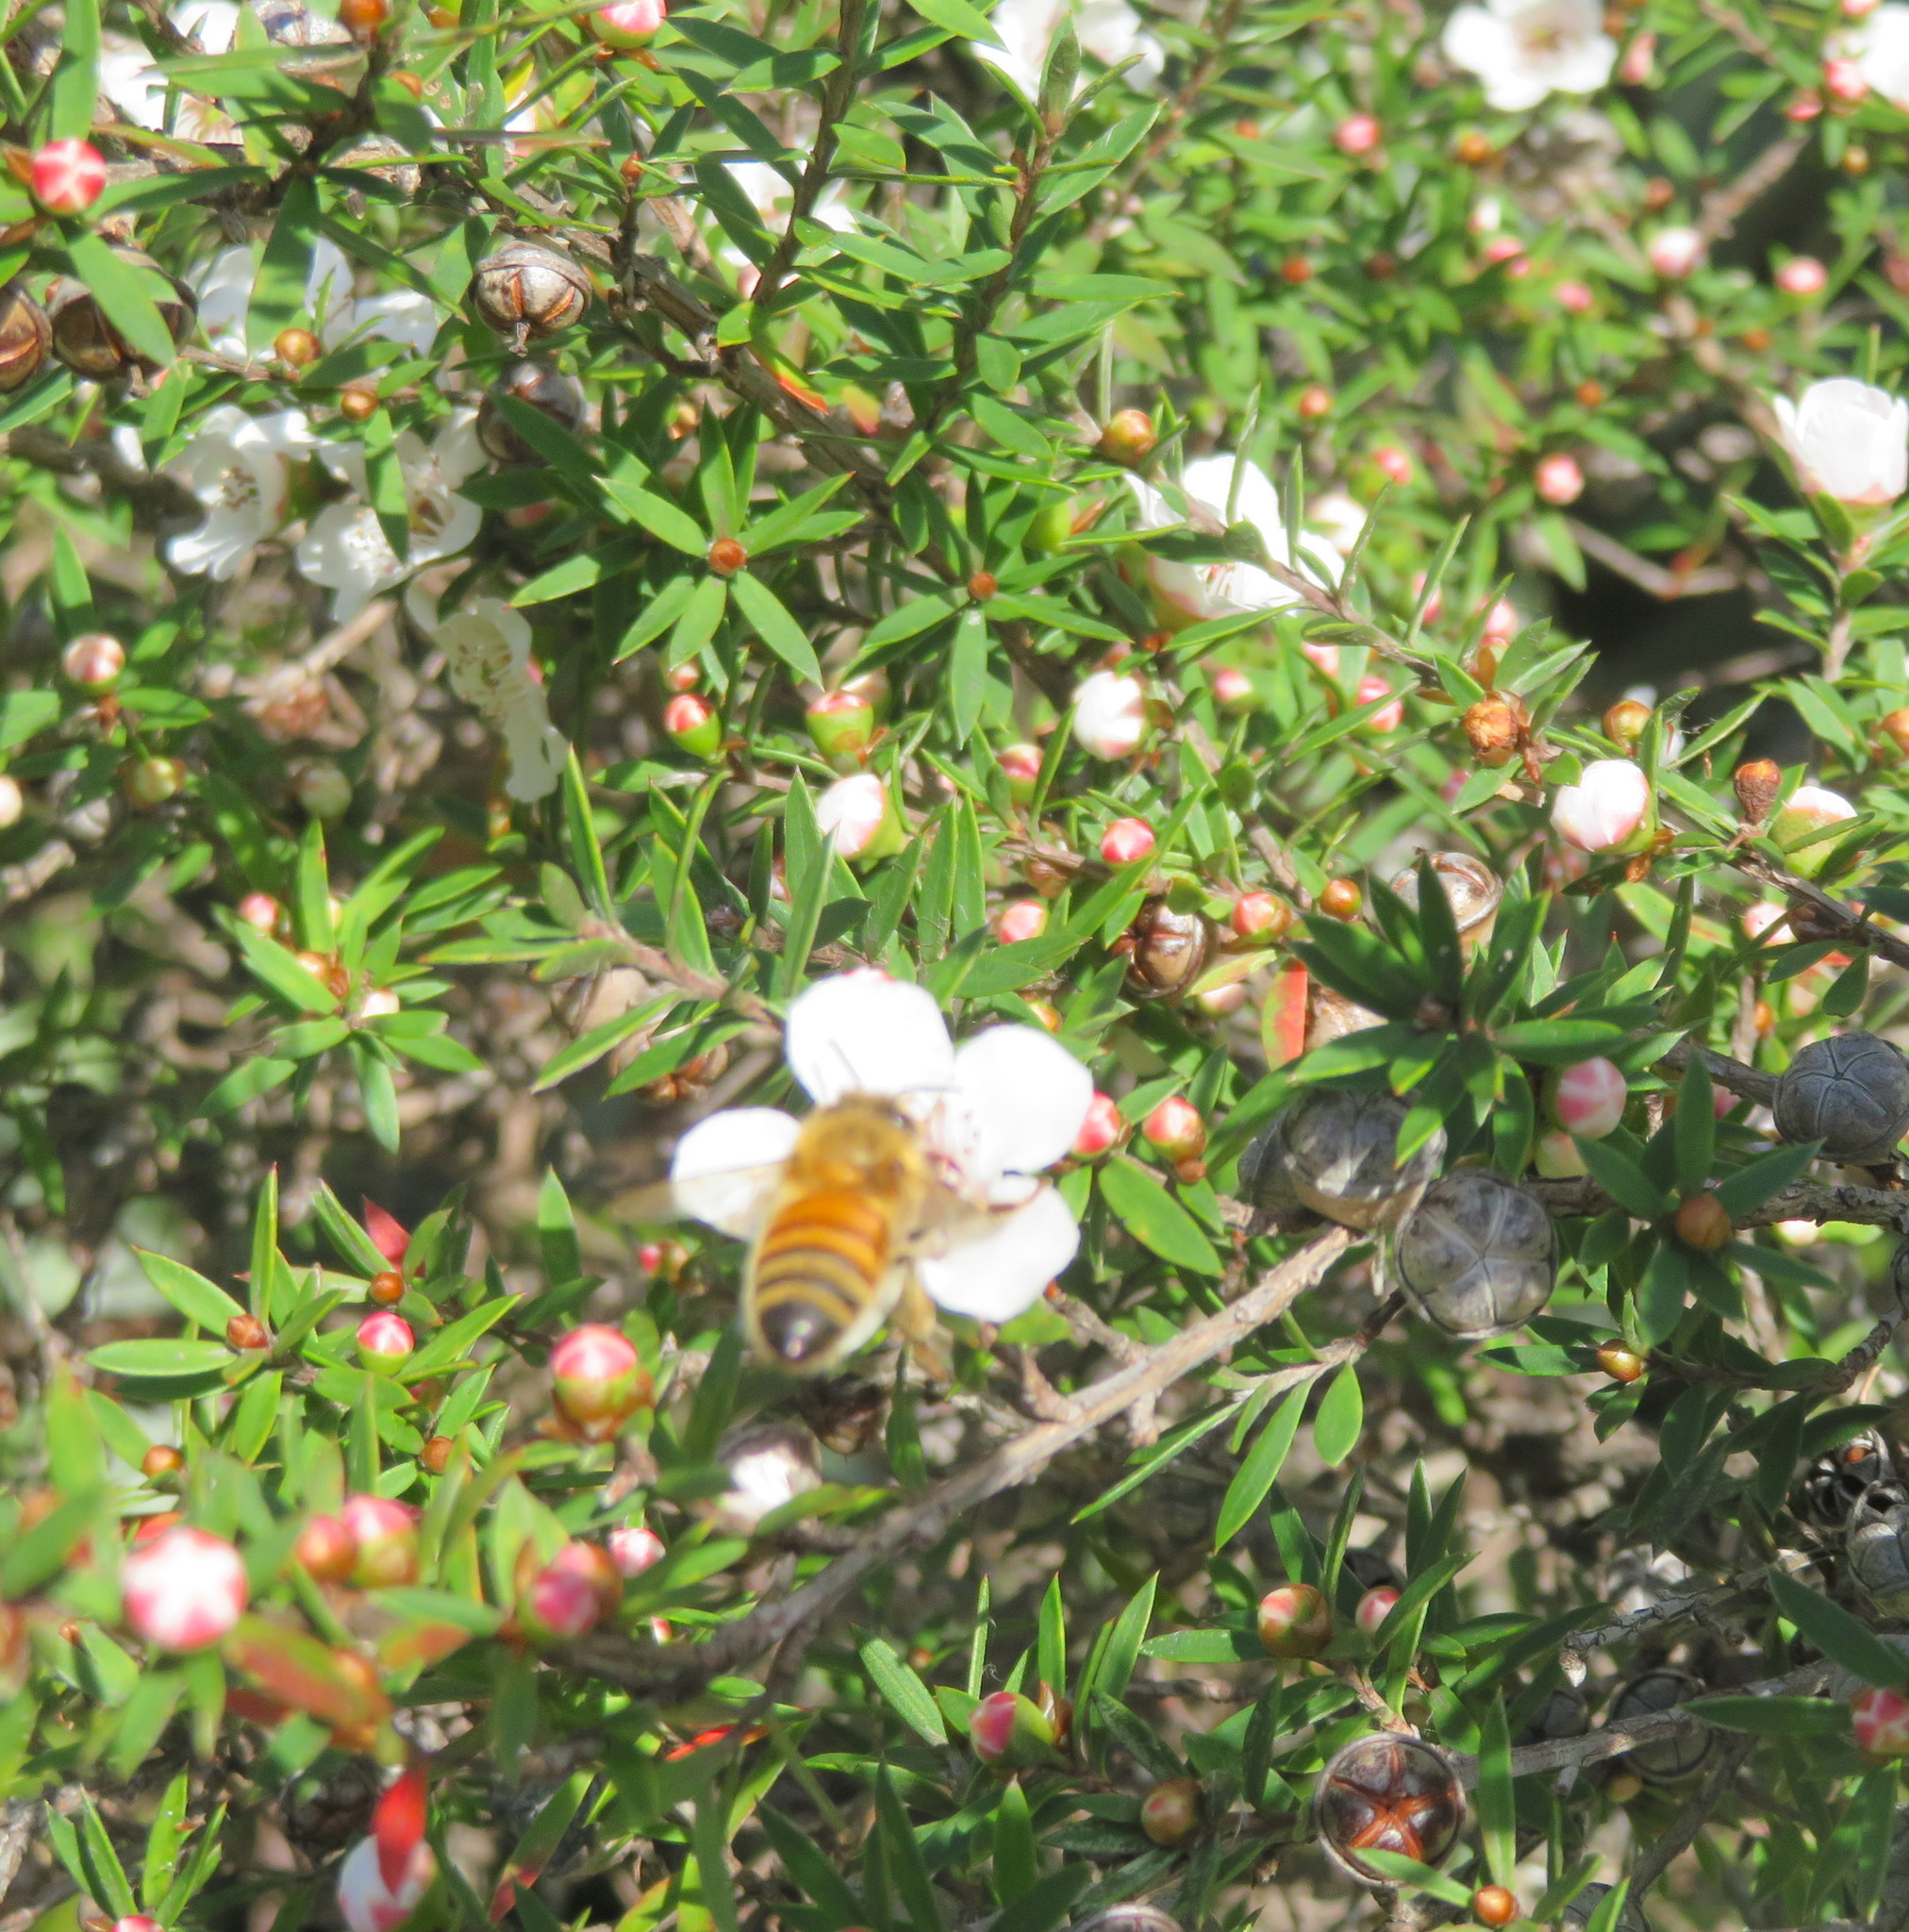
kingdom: Animalia
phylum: Arthropoda
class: Insecta
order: Hymenoptera
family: Apidae
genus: Apis
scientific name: Apis mellifera
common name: Honey bee
